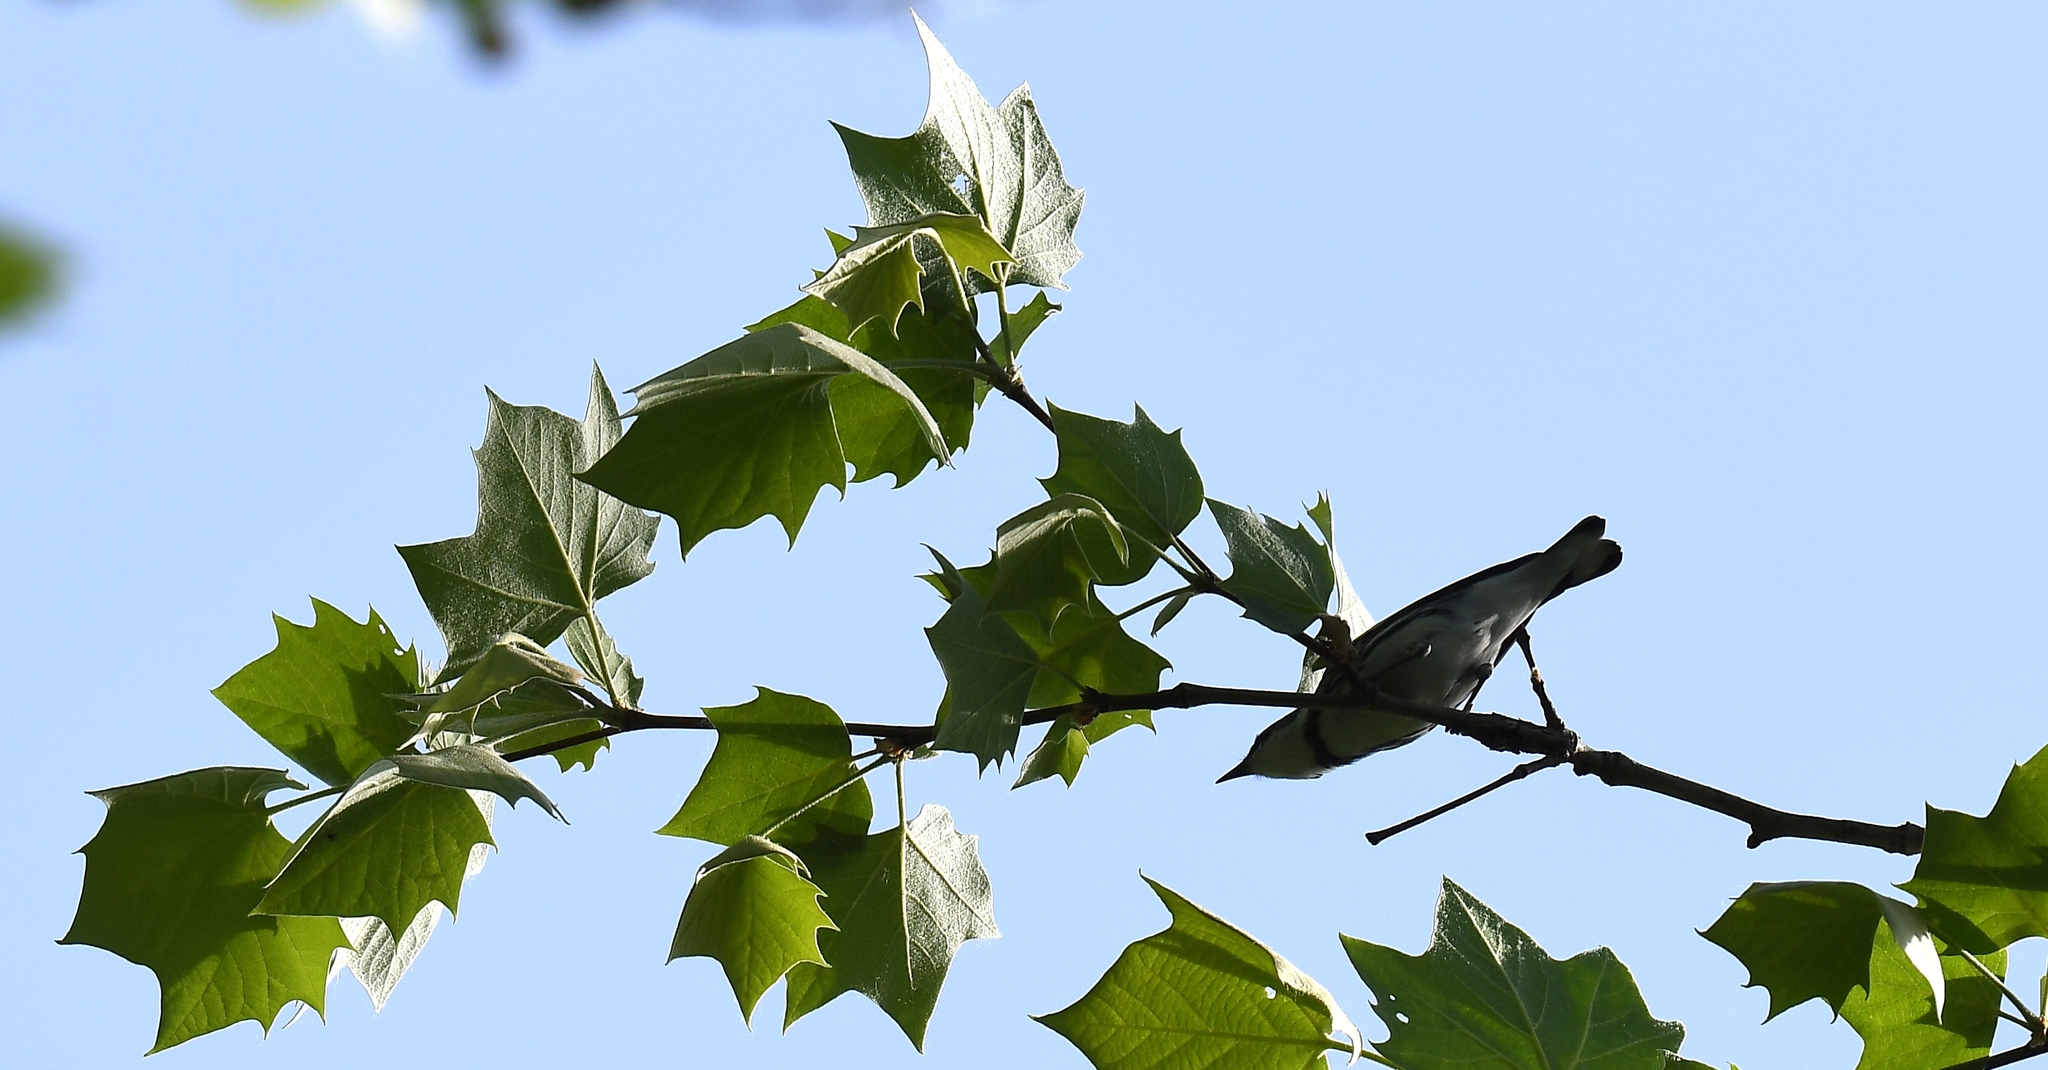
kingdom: Animalia
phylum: Chordata
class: Aves
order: Passeriformes
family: Parulidae
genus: Setophaga
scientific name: Setophaga cerulea
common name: Cerulean warbler
